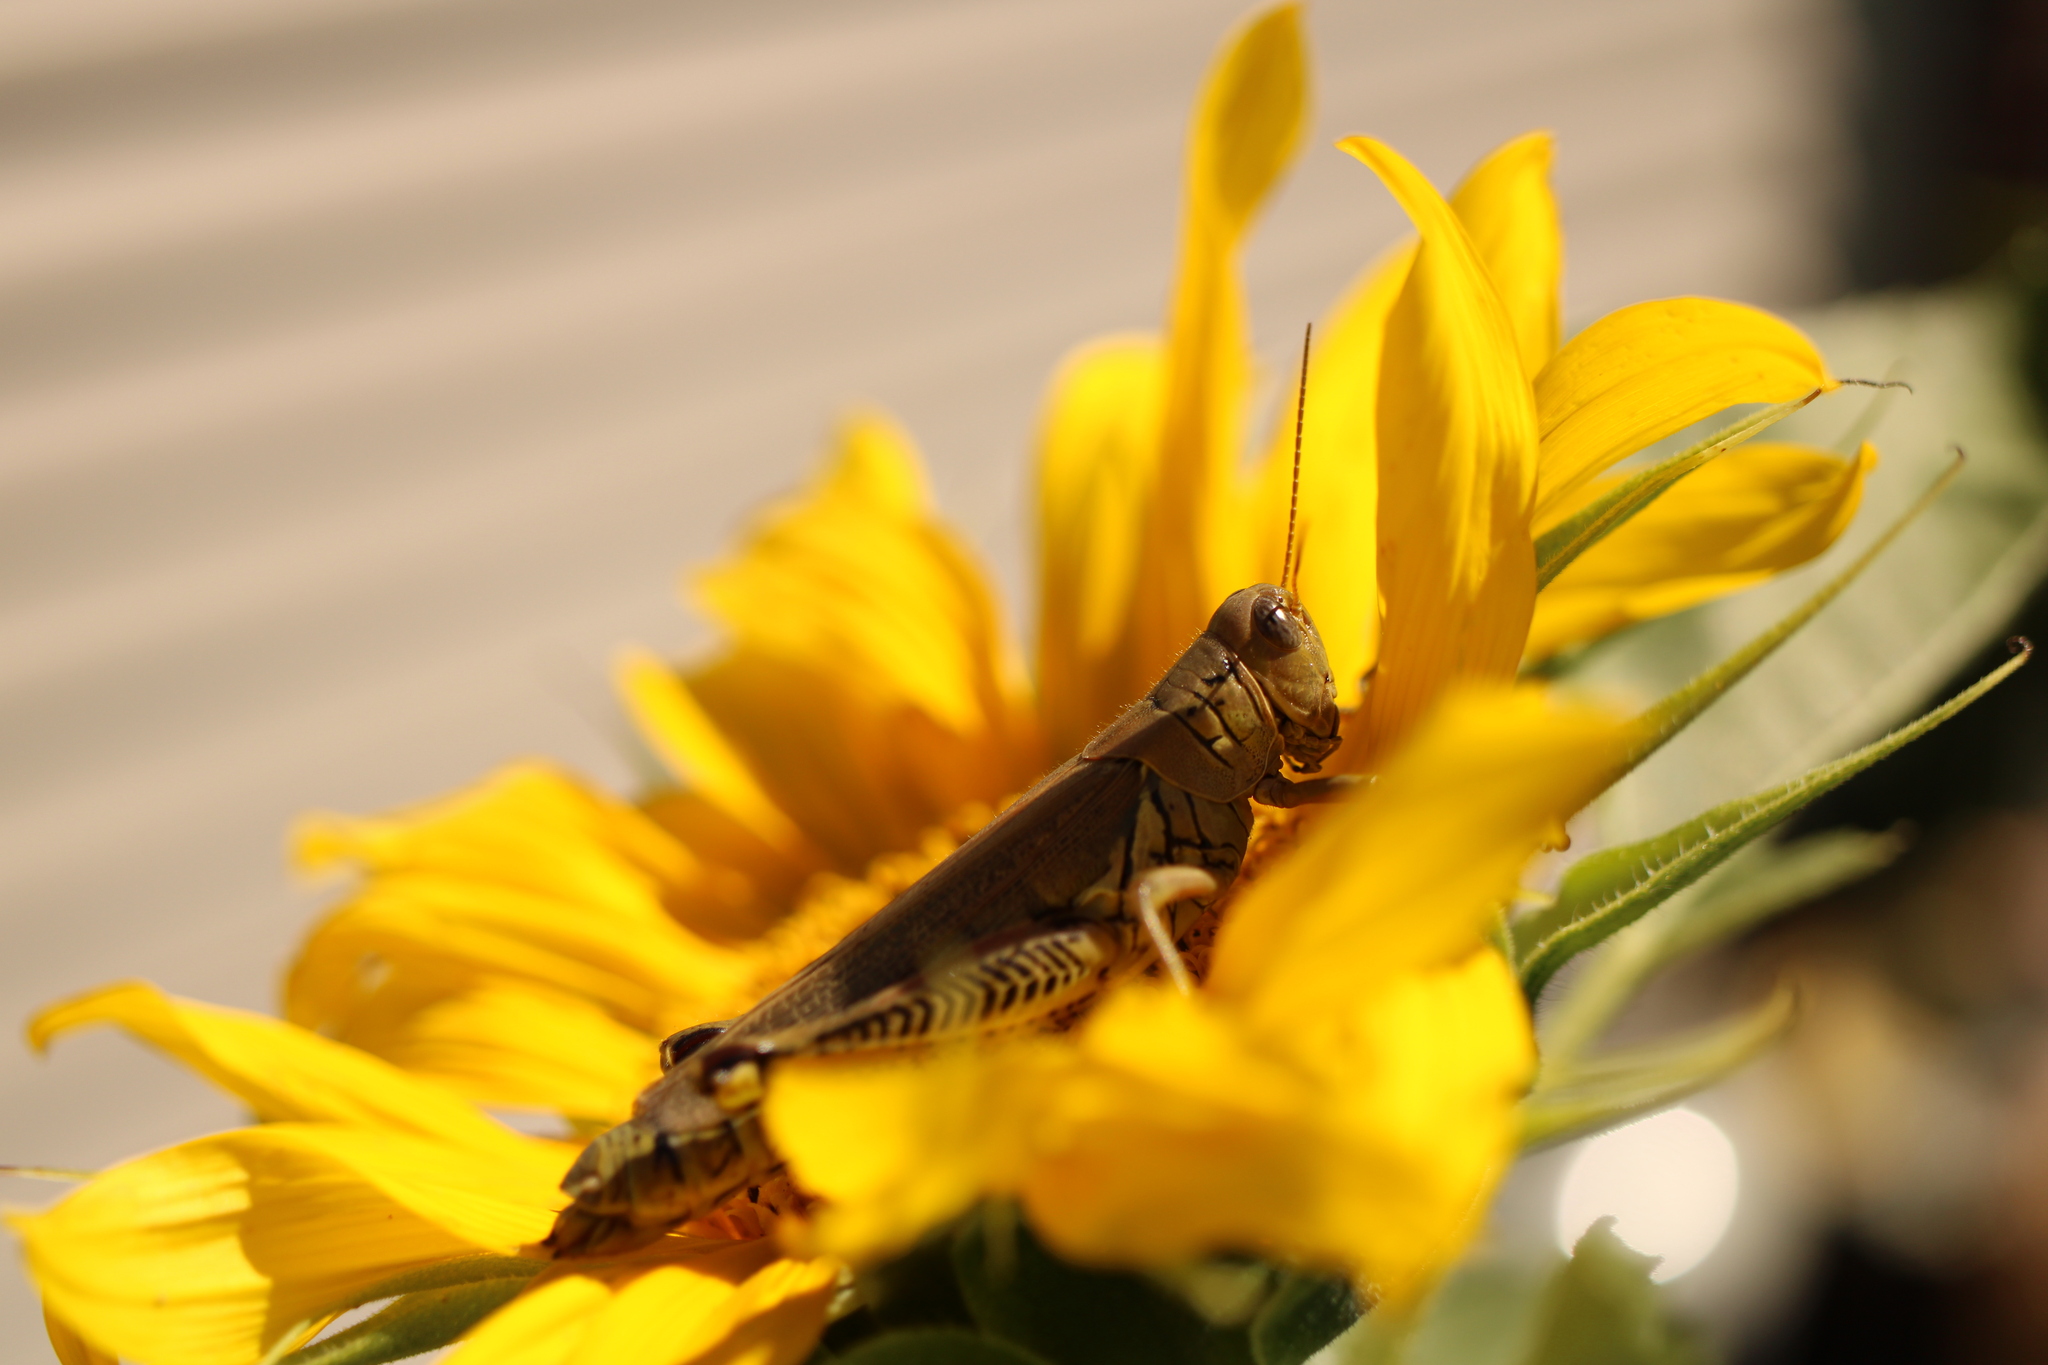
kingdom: Animalia
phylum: Arthropoda
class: Insecta
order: Orthoptera
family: Acrididae
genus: Melanoplus
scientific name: Melanoplus differentialis
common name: Differential grasshopper
